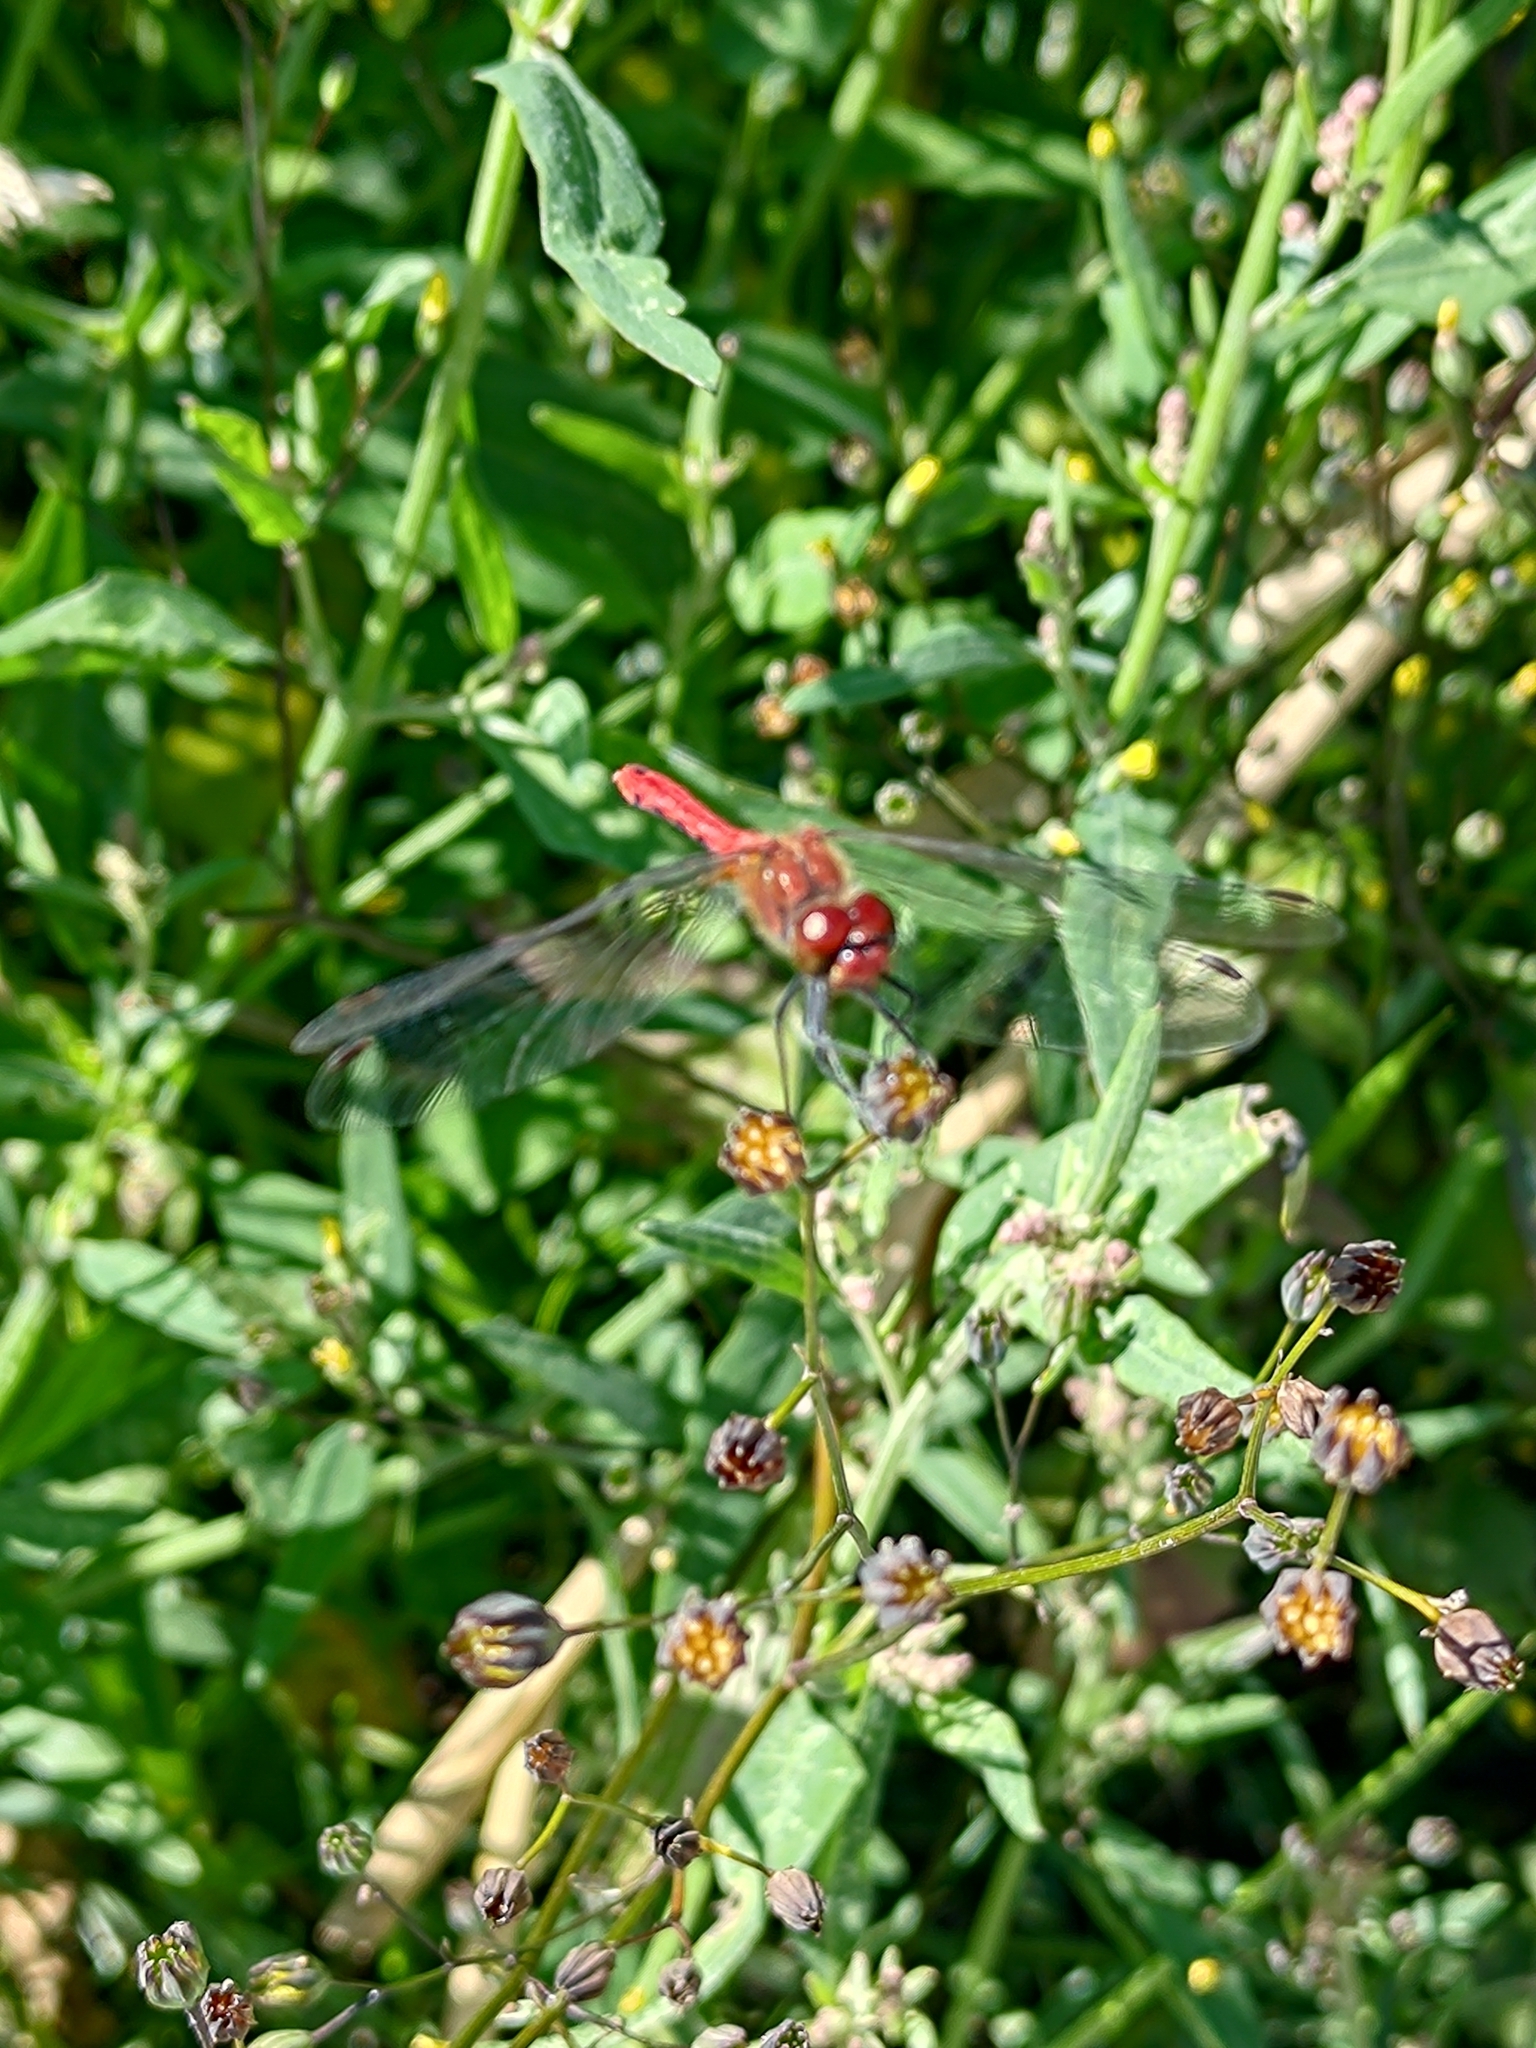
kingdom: Animalia
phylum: Arthropoda
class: Insecta
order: Odonata
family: Libellulidae
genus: Sympetrum
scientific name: Sympetrum sanguineum
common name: Ruddy darter
